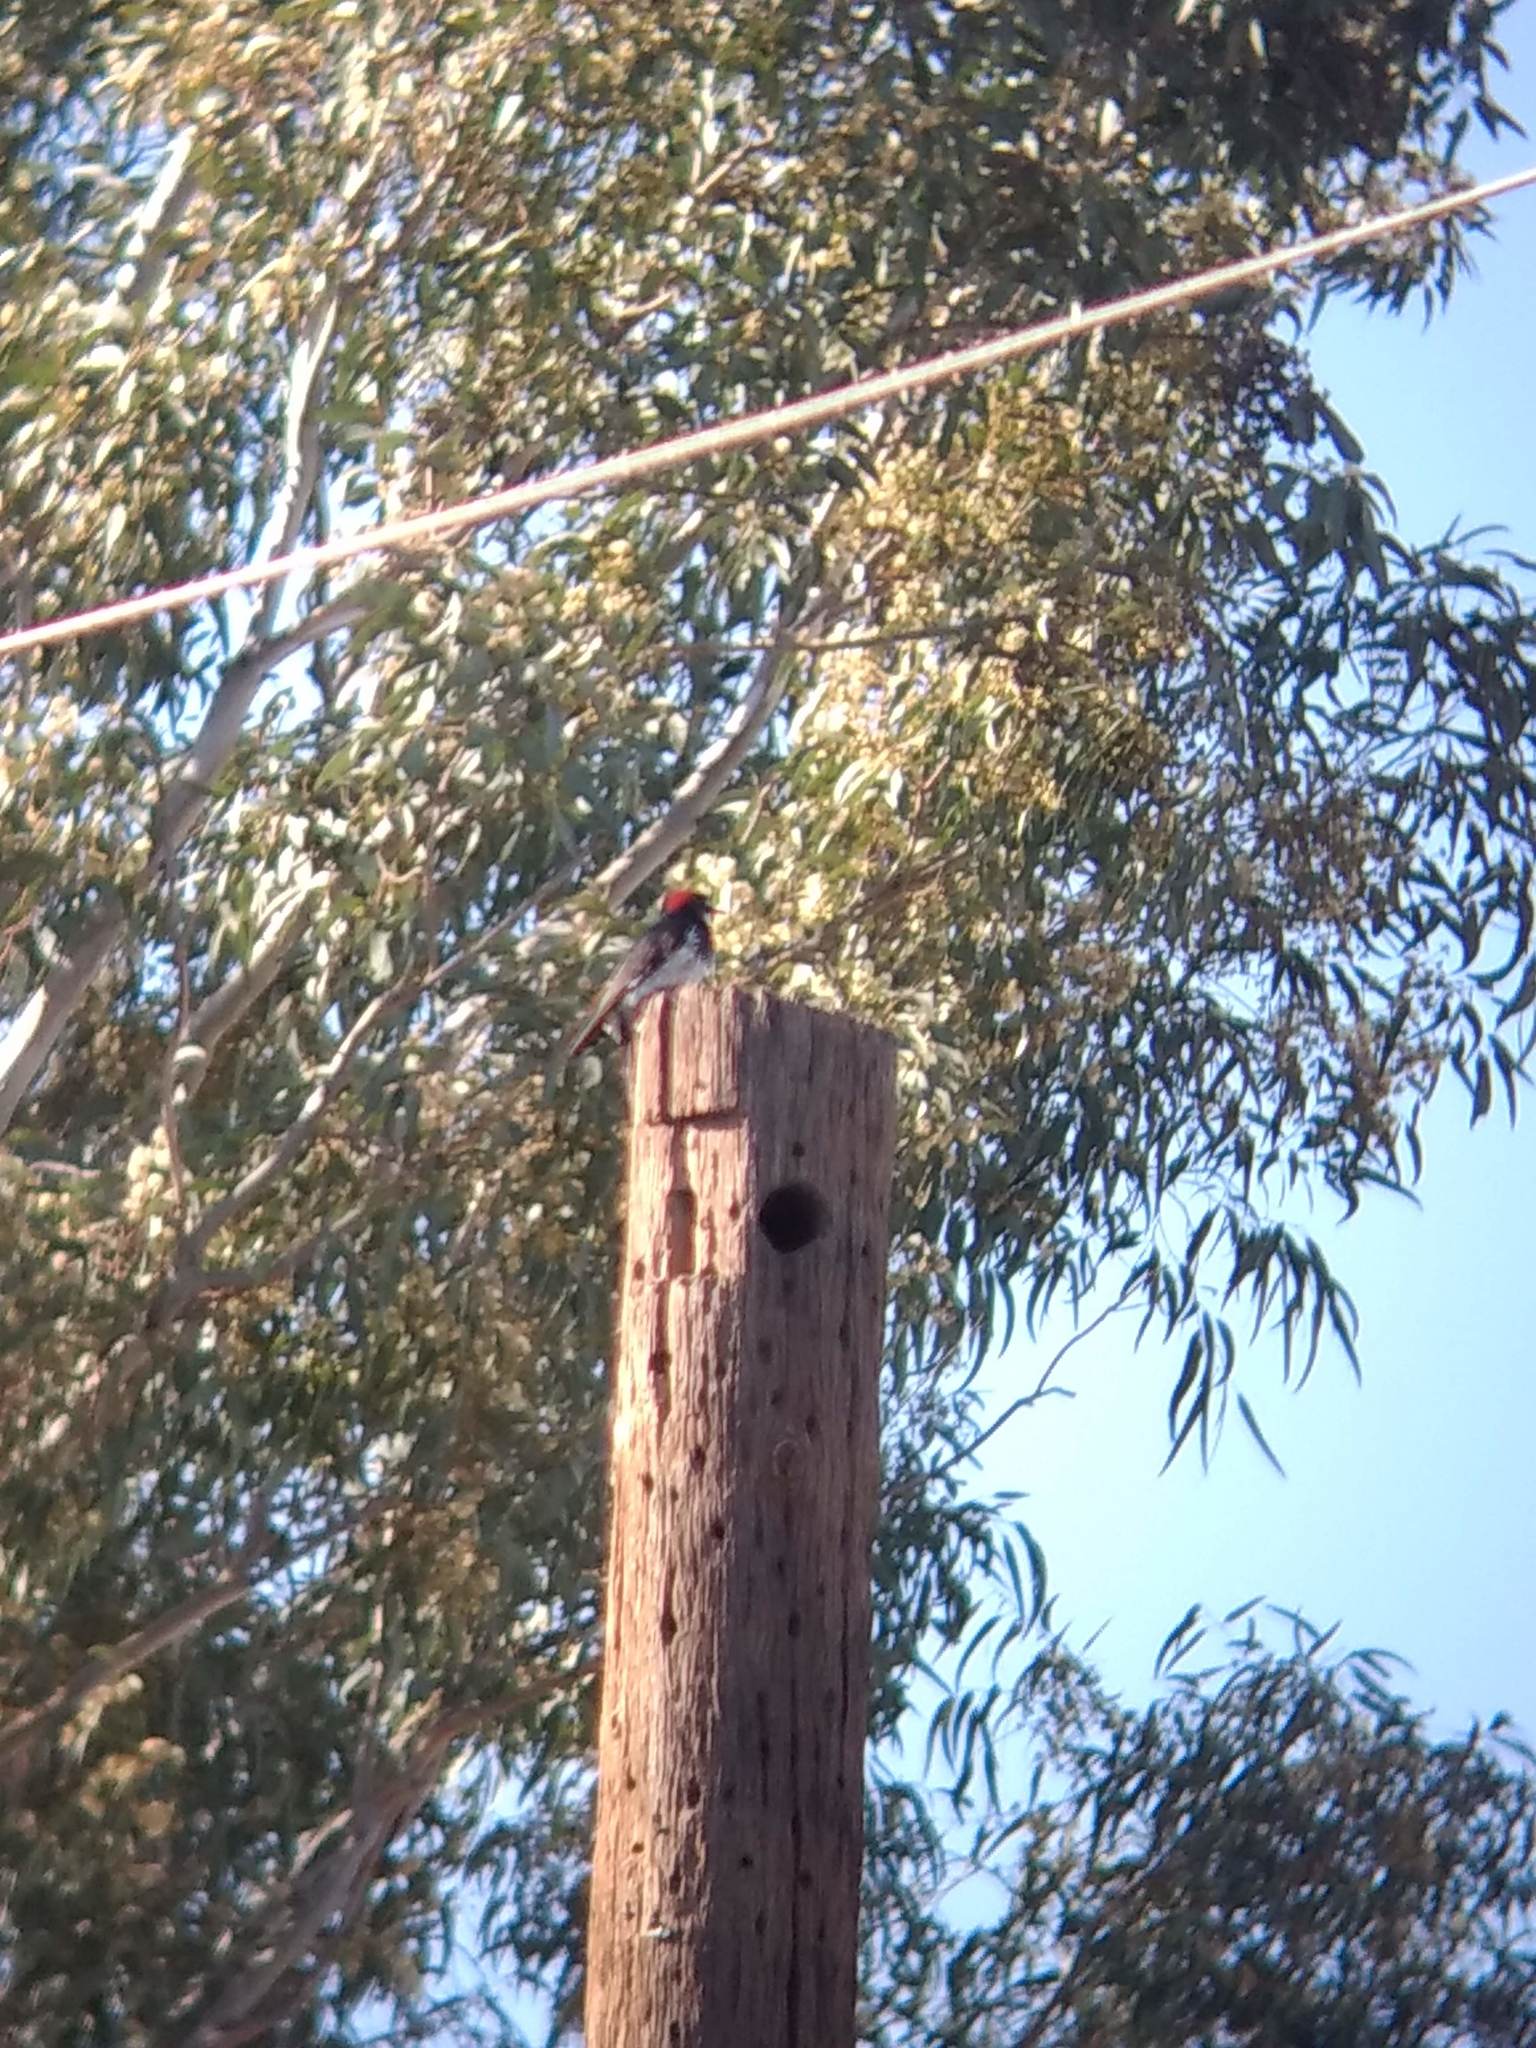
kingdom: Animalia
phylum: Chordata
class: Aves
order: Piciformes
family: Picidae
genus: Melanerpes
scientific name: Melanerpes formicivorus
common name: Acorn woodpecker
